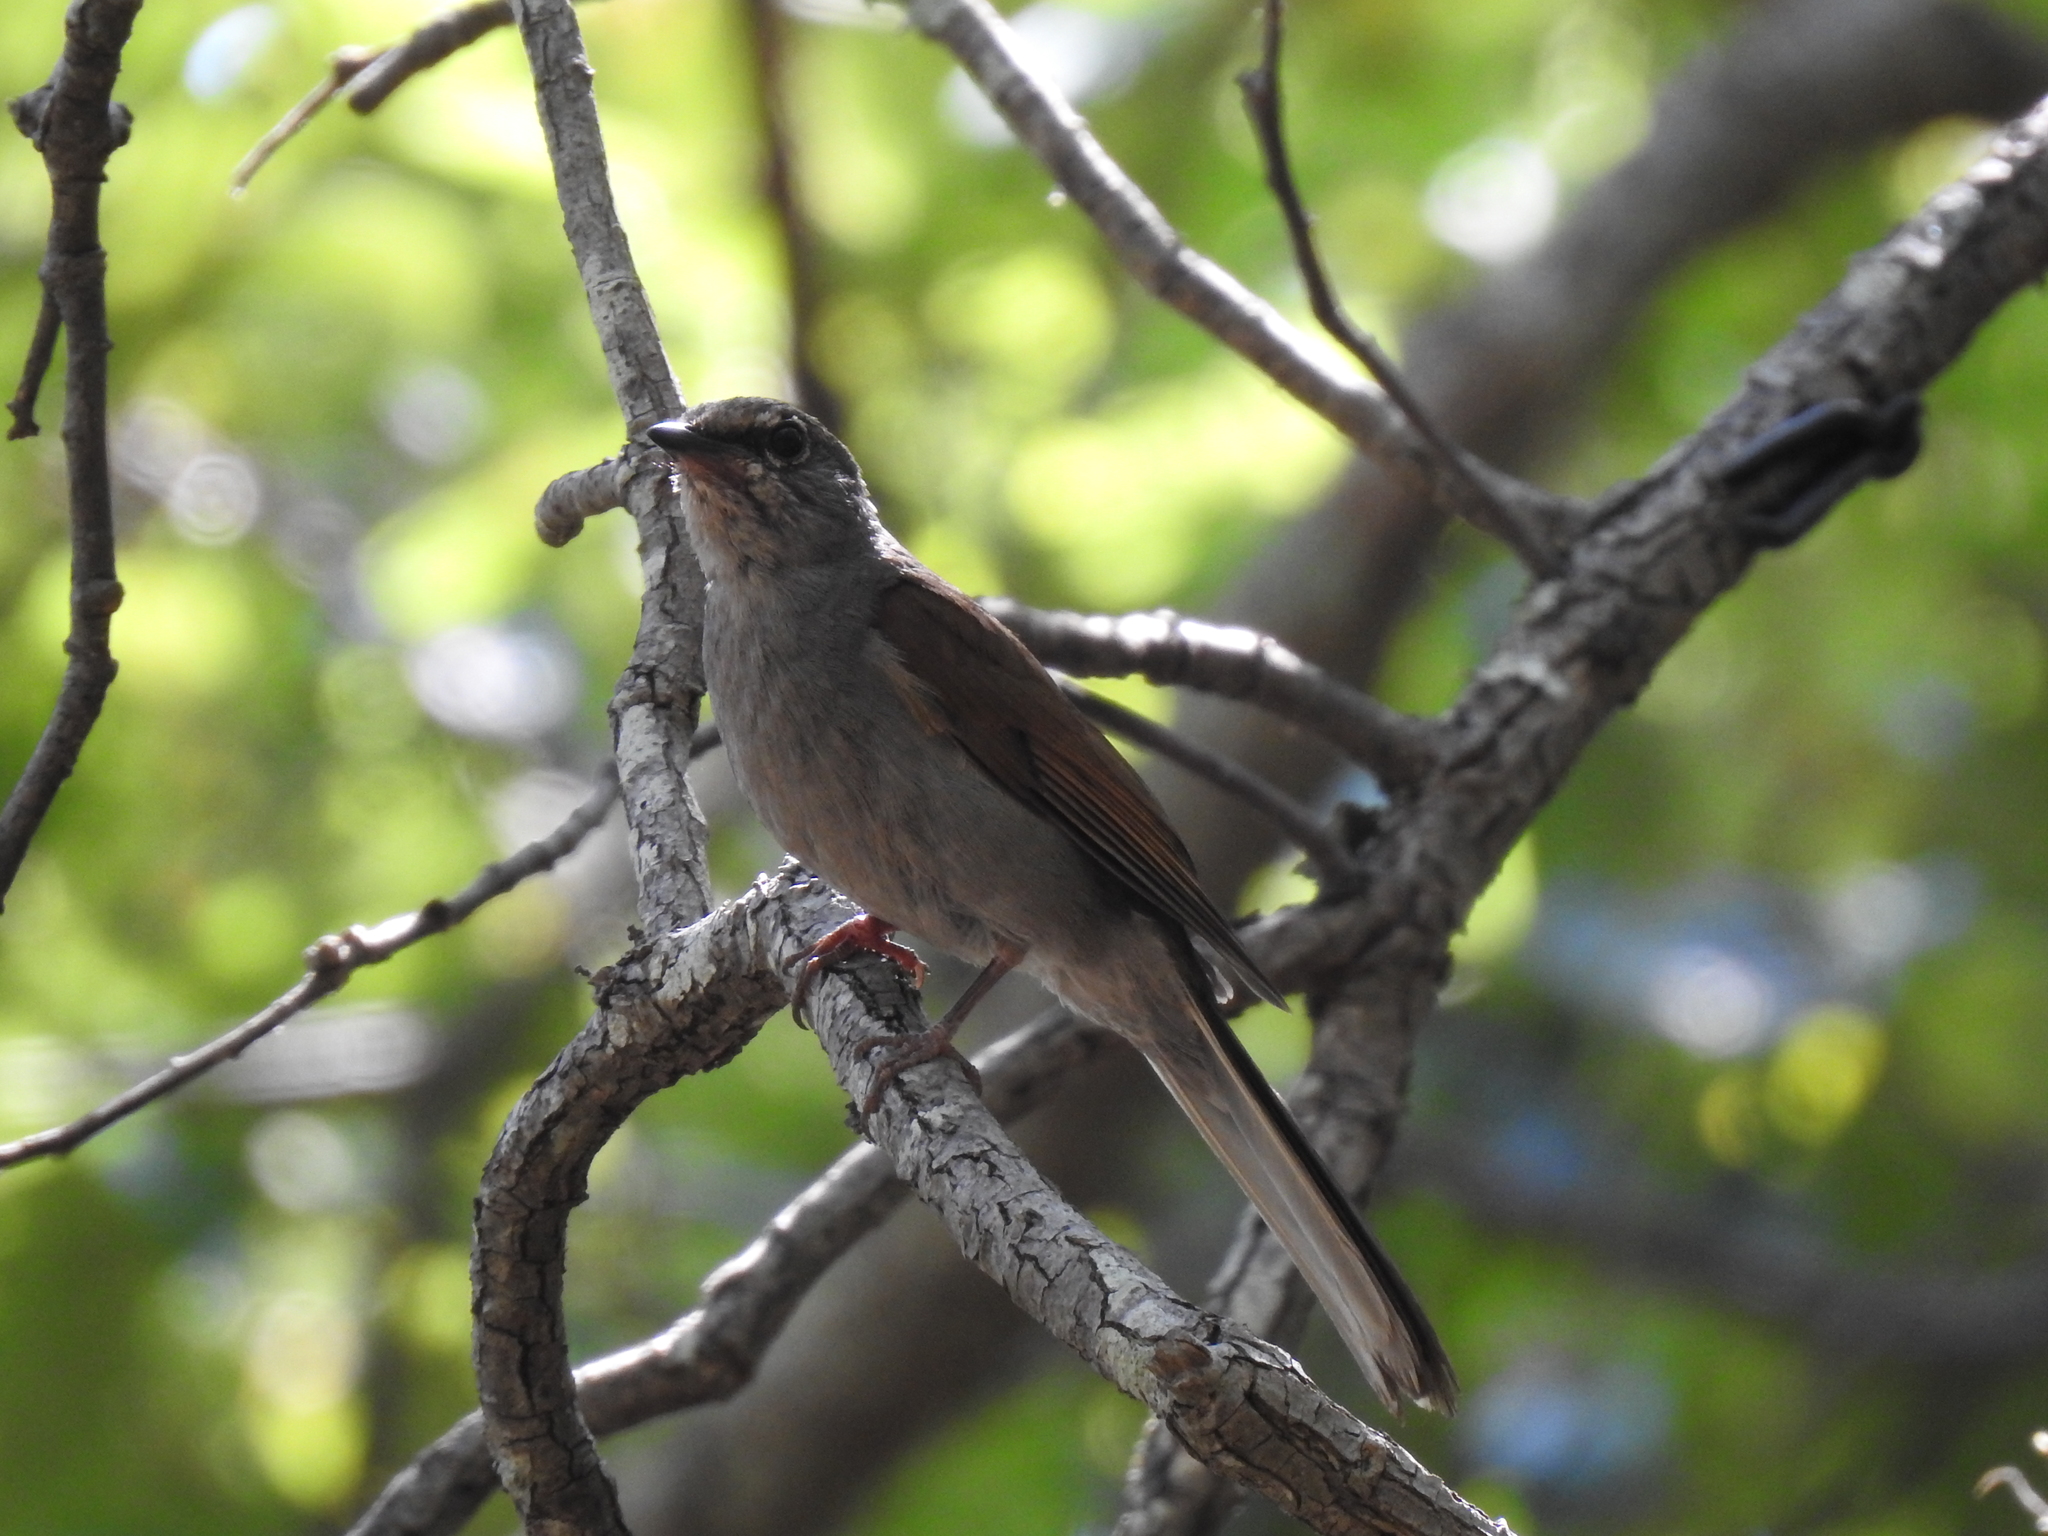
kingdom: Animalia
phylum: Chordata
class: Aves
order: Passeriformes
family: Turdidae
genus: Myadestes
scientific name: Myadestes occidentalis
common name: Brown-backed solitaire
